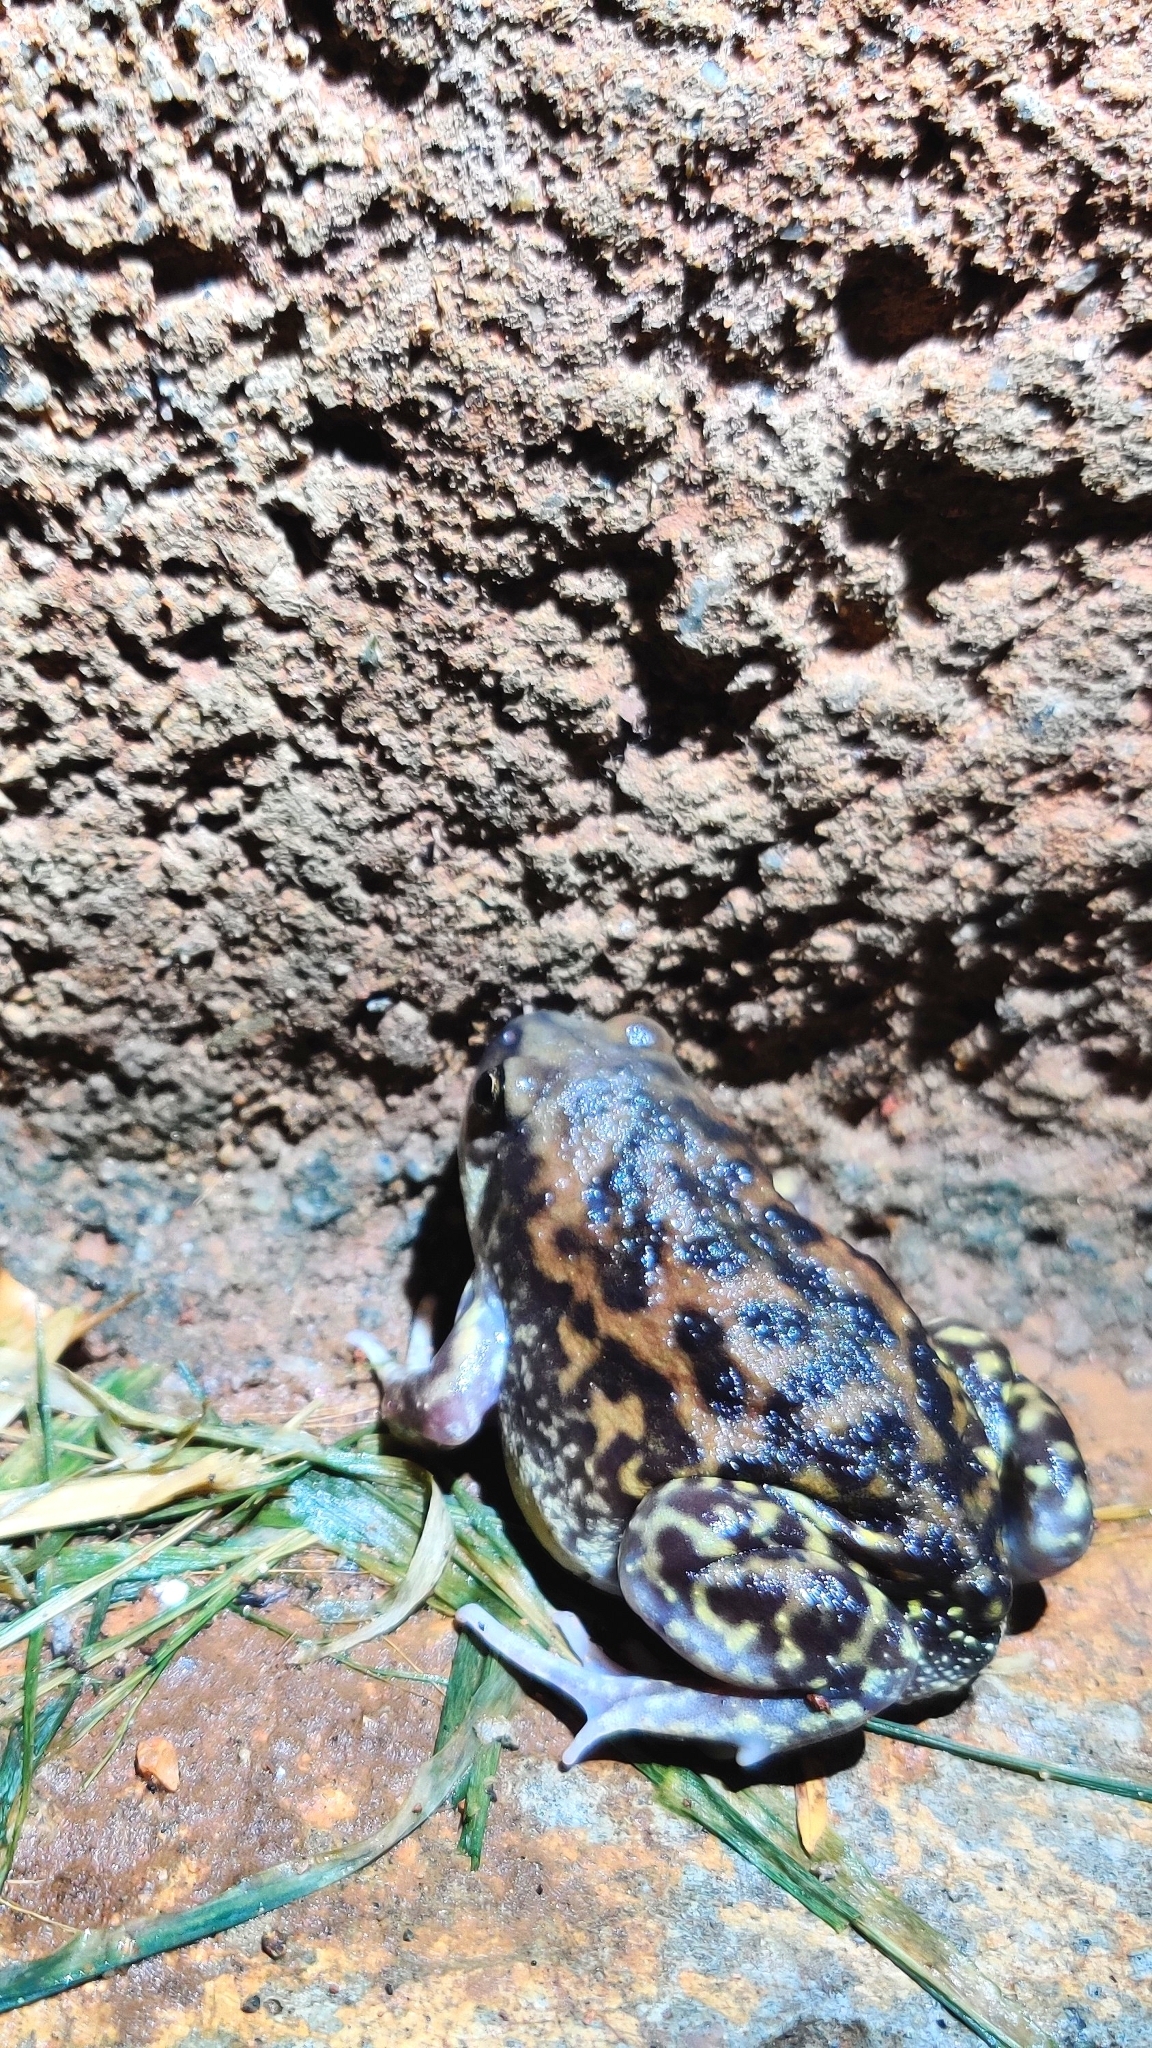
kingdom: Animalia
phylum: Chordata
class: Amphibia
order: Anura
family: Microhylidae
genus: Uperodon
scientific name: Uperodon systoma
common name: Balloon frog
